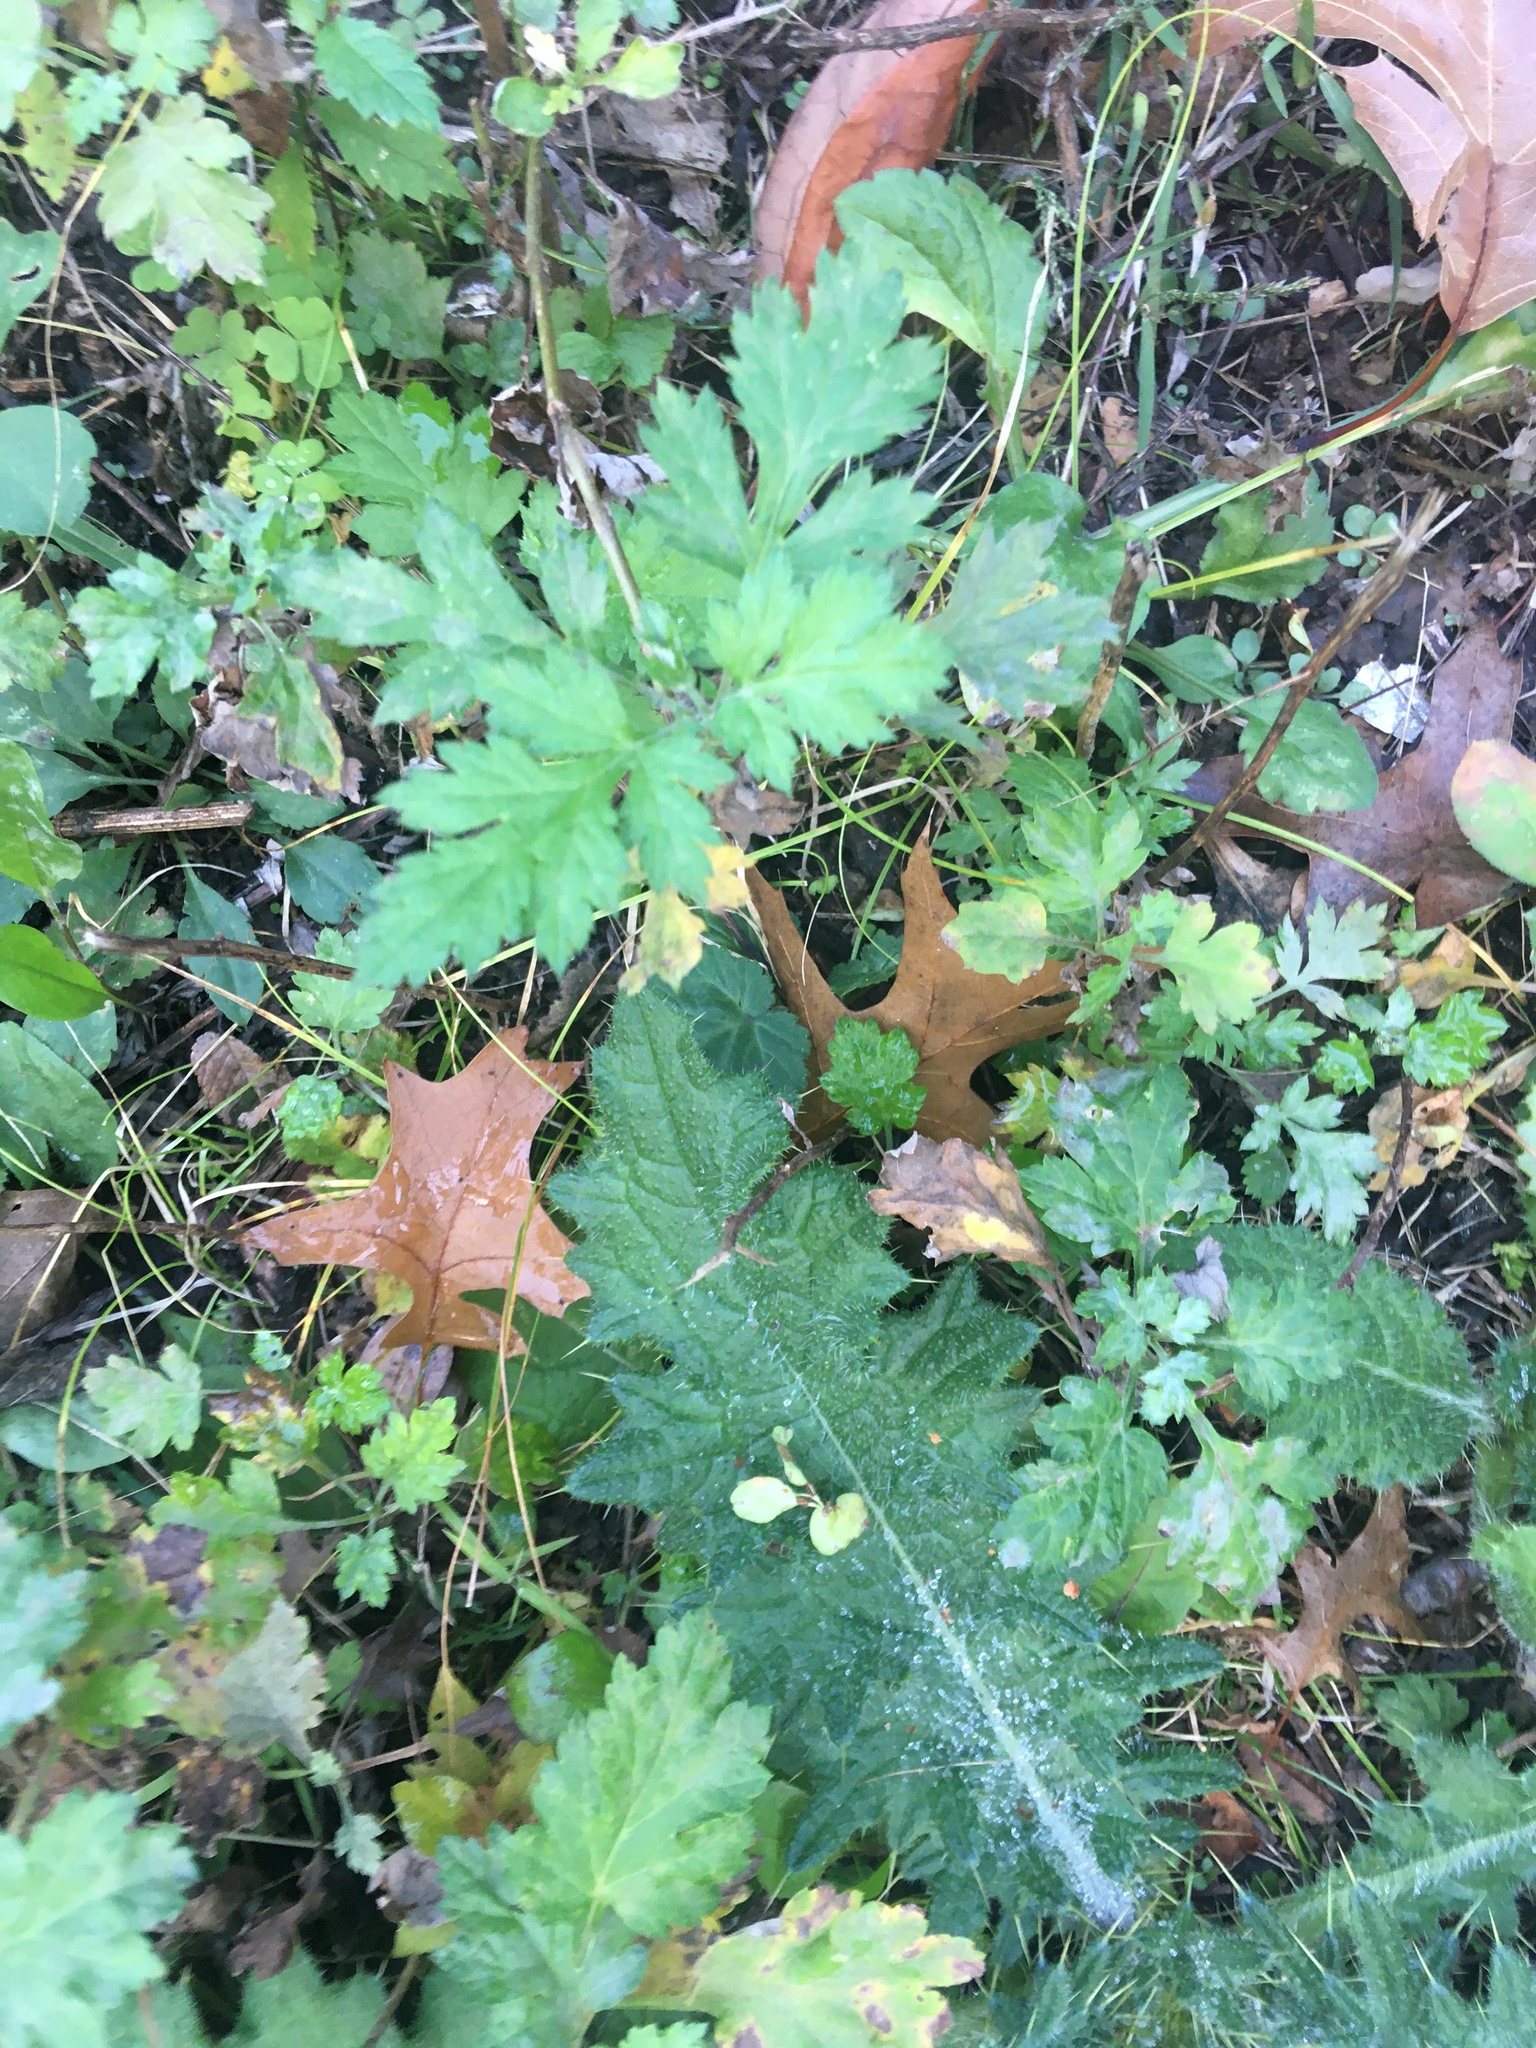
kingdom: Plantae
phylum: Tracheophyta
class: Magnoliopsida
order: Asterales
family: Asteraceae
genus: Artemisia
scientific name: Artemisia vulgaris
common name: Mugwort
